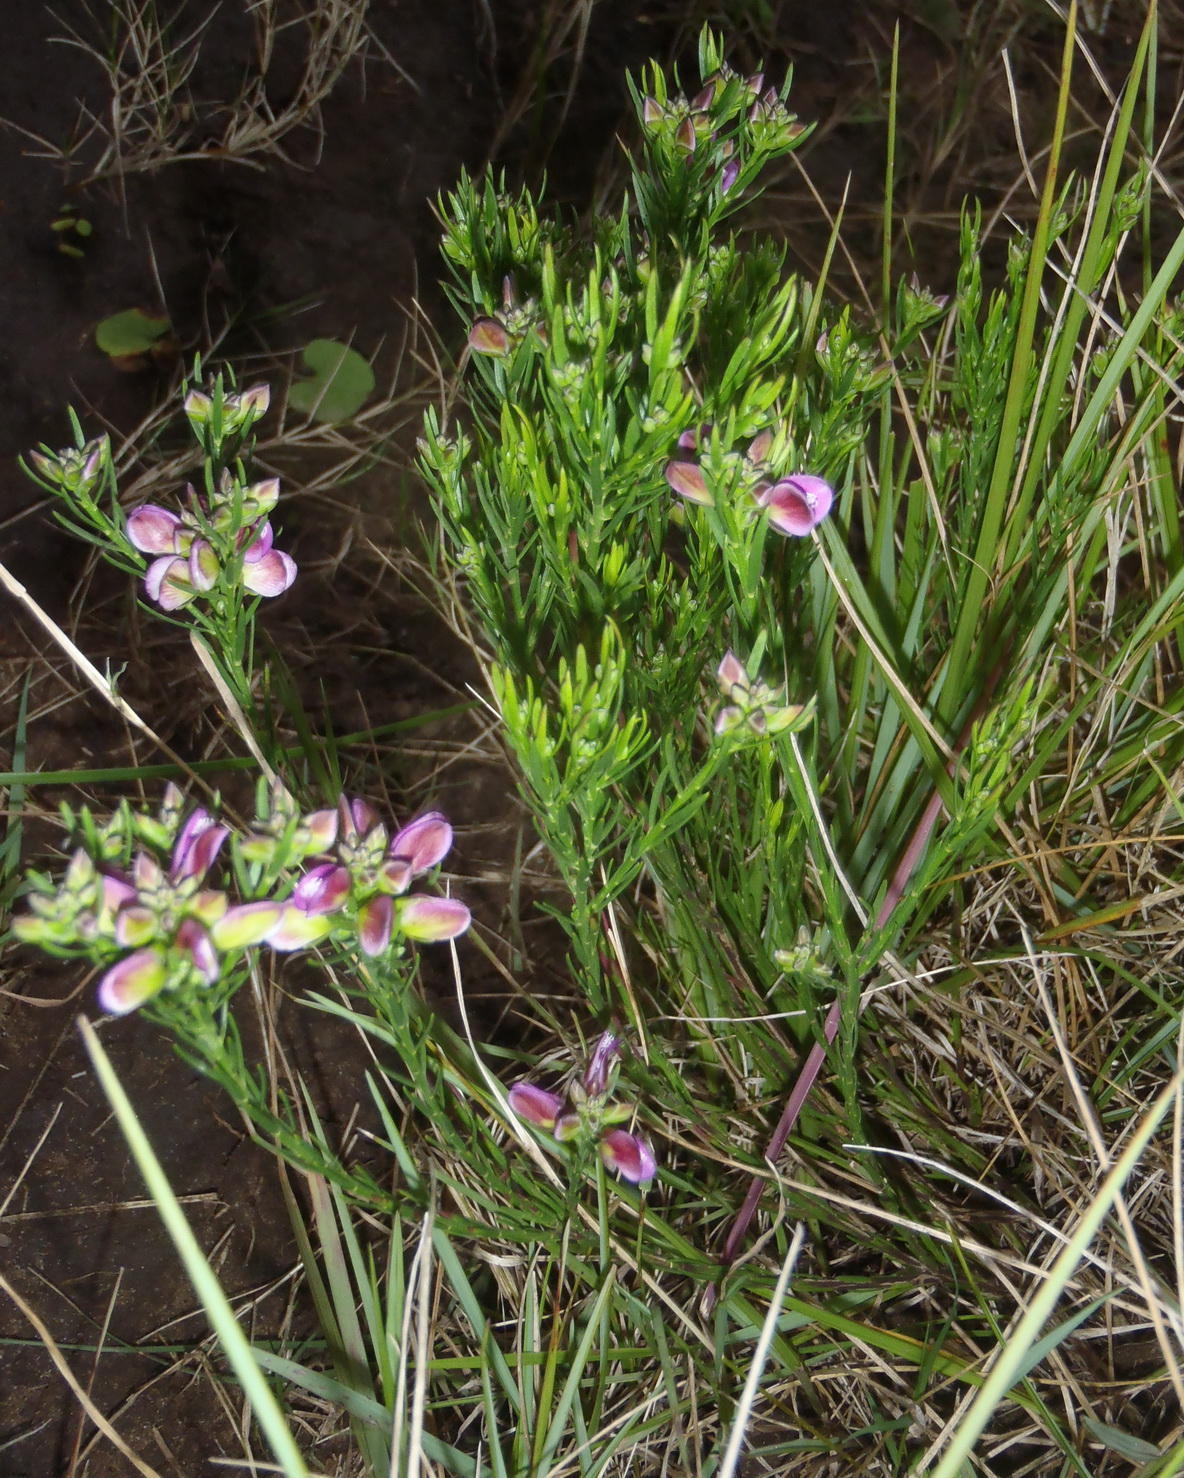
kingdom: Plantae
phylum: Tracheophyta
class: Magnoliopsida
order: Fabales
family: Polygalaceae
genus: Polygala
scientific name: Polygala ericifolia
